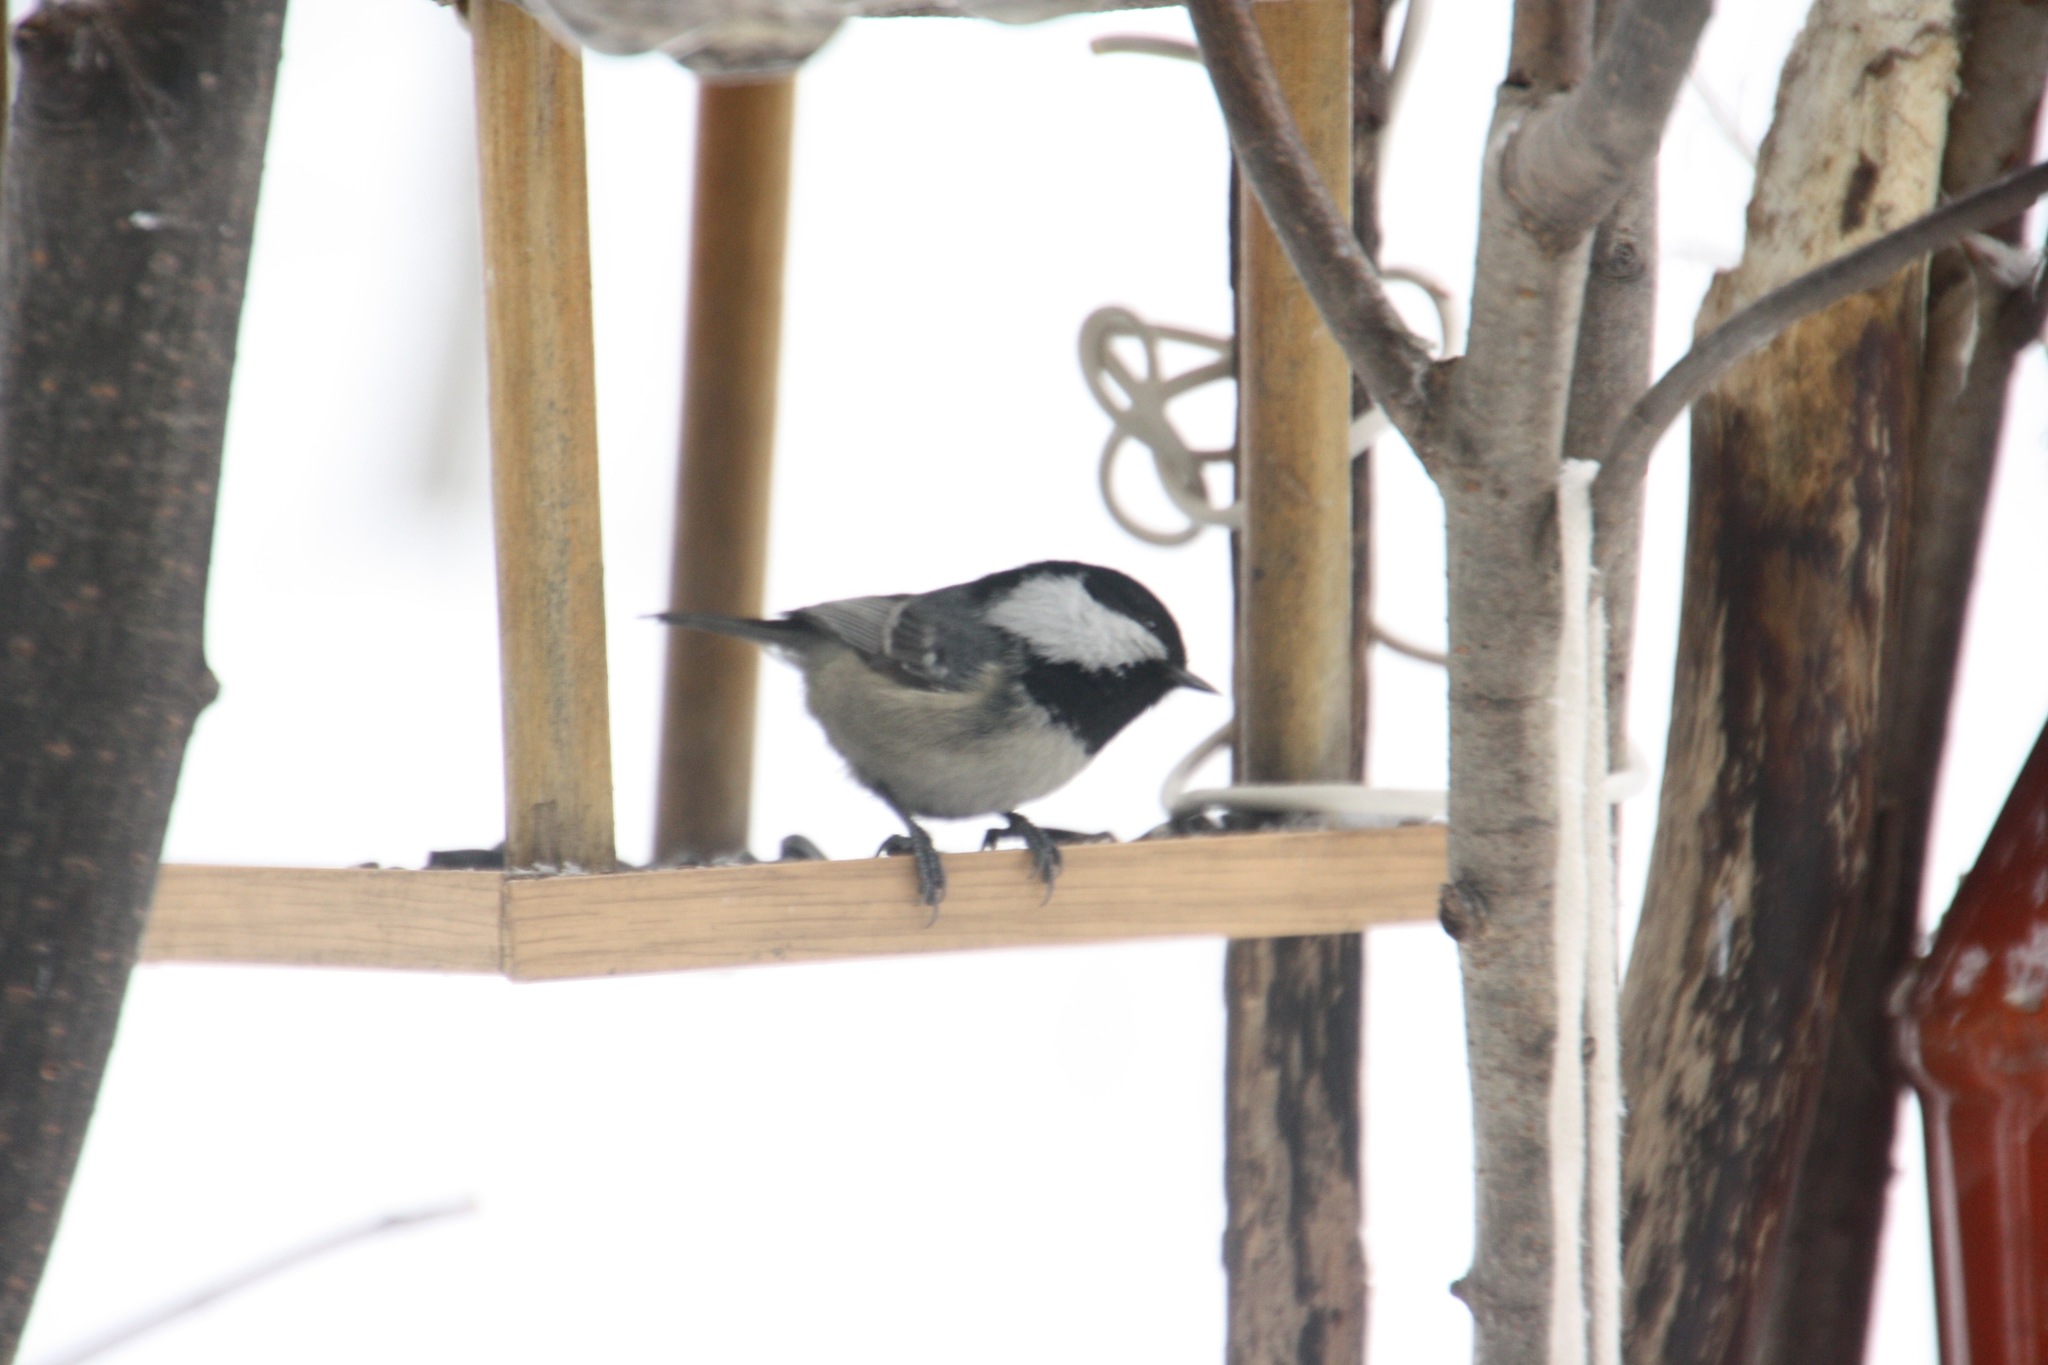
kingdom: Animalia
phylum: Chordata
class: Aves
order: Passeriformes
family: Paridae
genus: Periparus
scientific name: Periparus ater
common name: Coal tit
